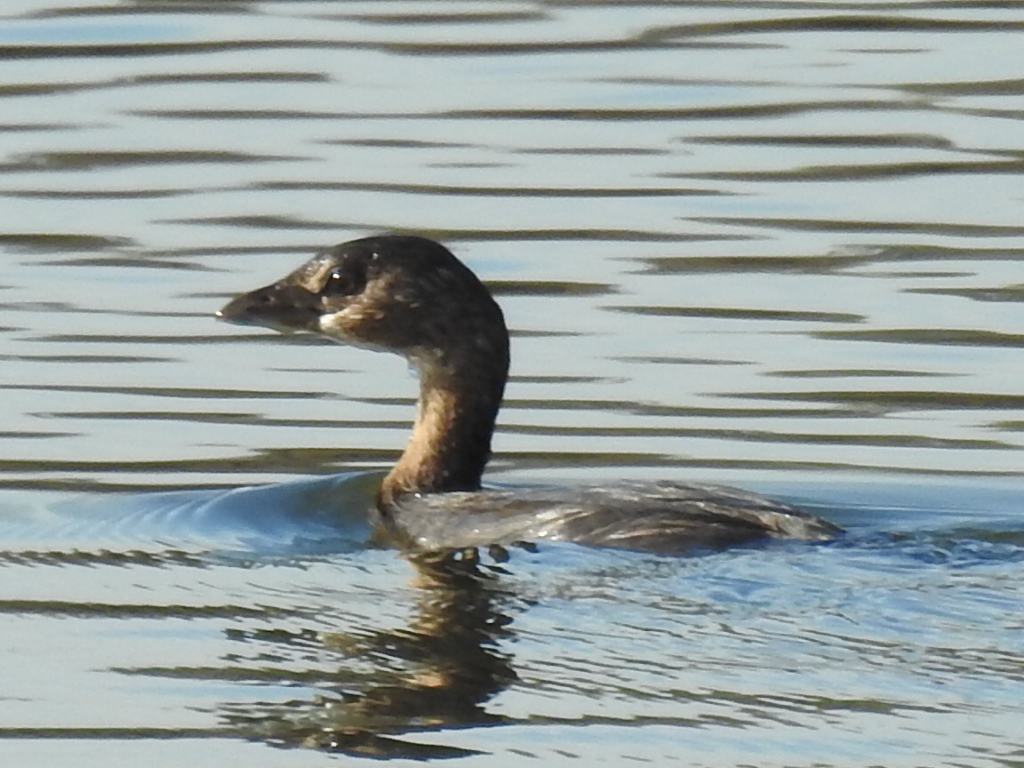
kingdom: Animalia
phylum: Chordata
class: Aves
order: Podicipediformes
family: Podicipedidae
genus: Podilymbus
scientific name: Podilymbus podiceps
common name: Pied-billed grebe
